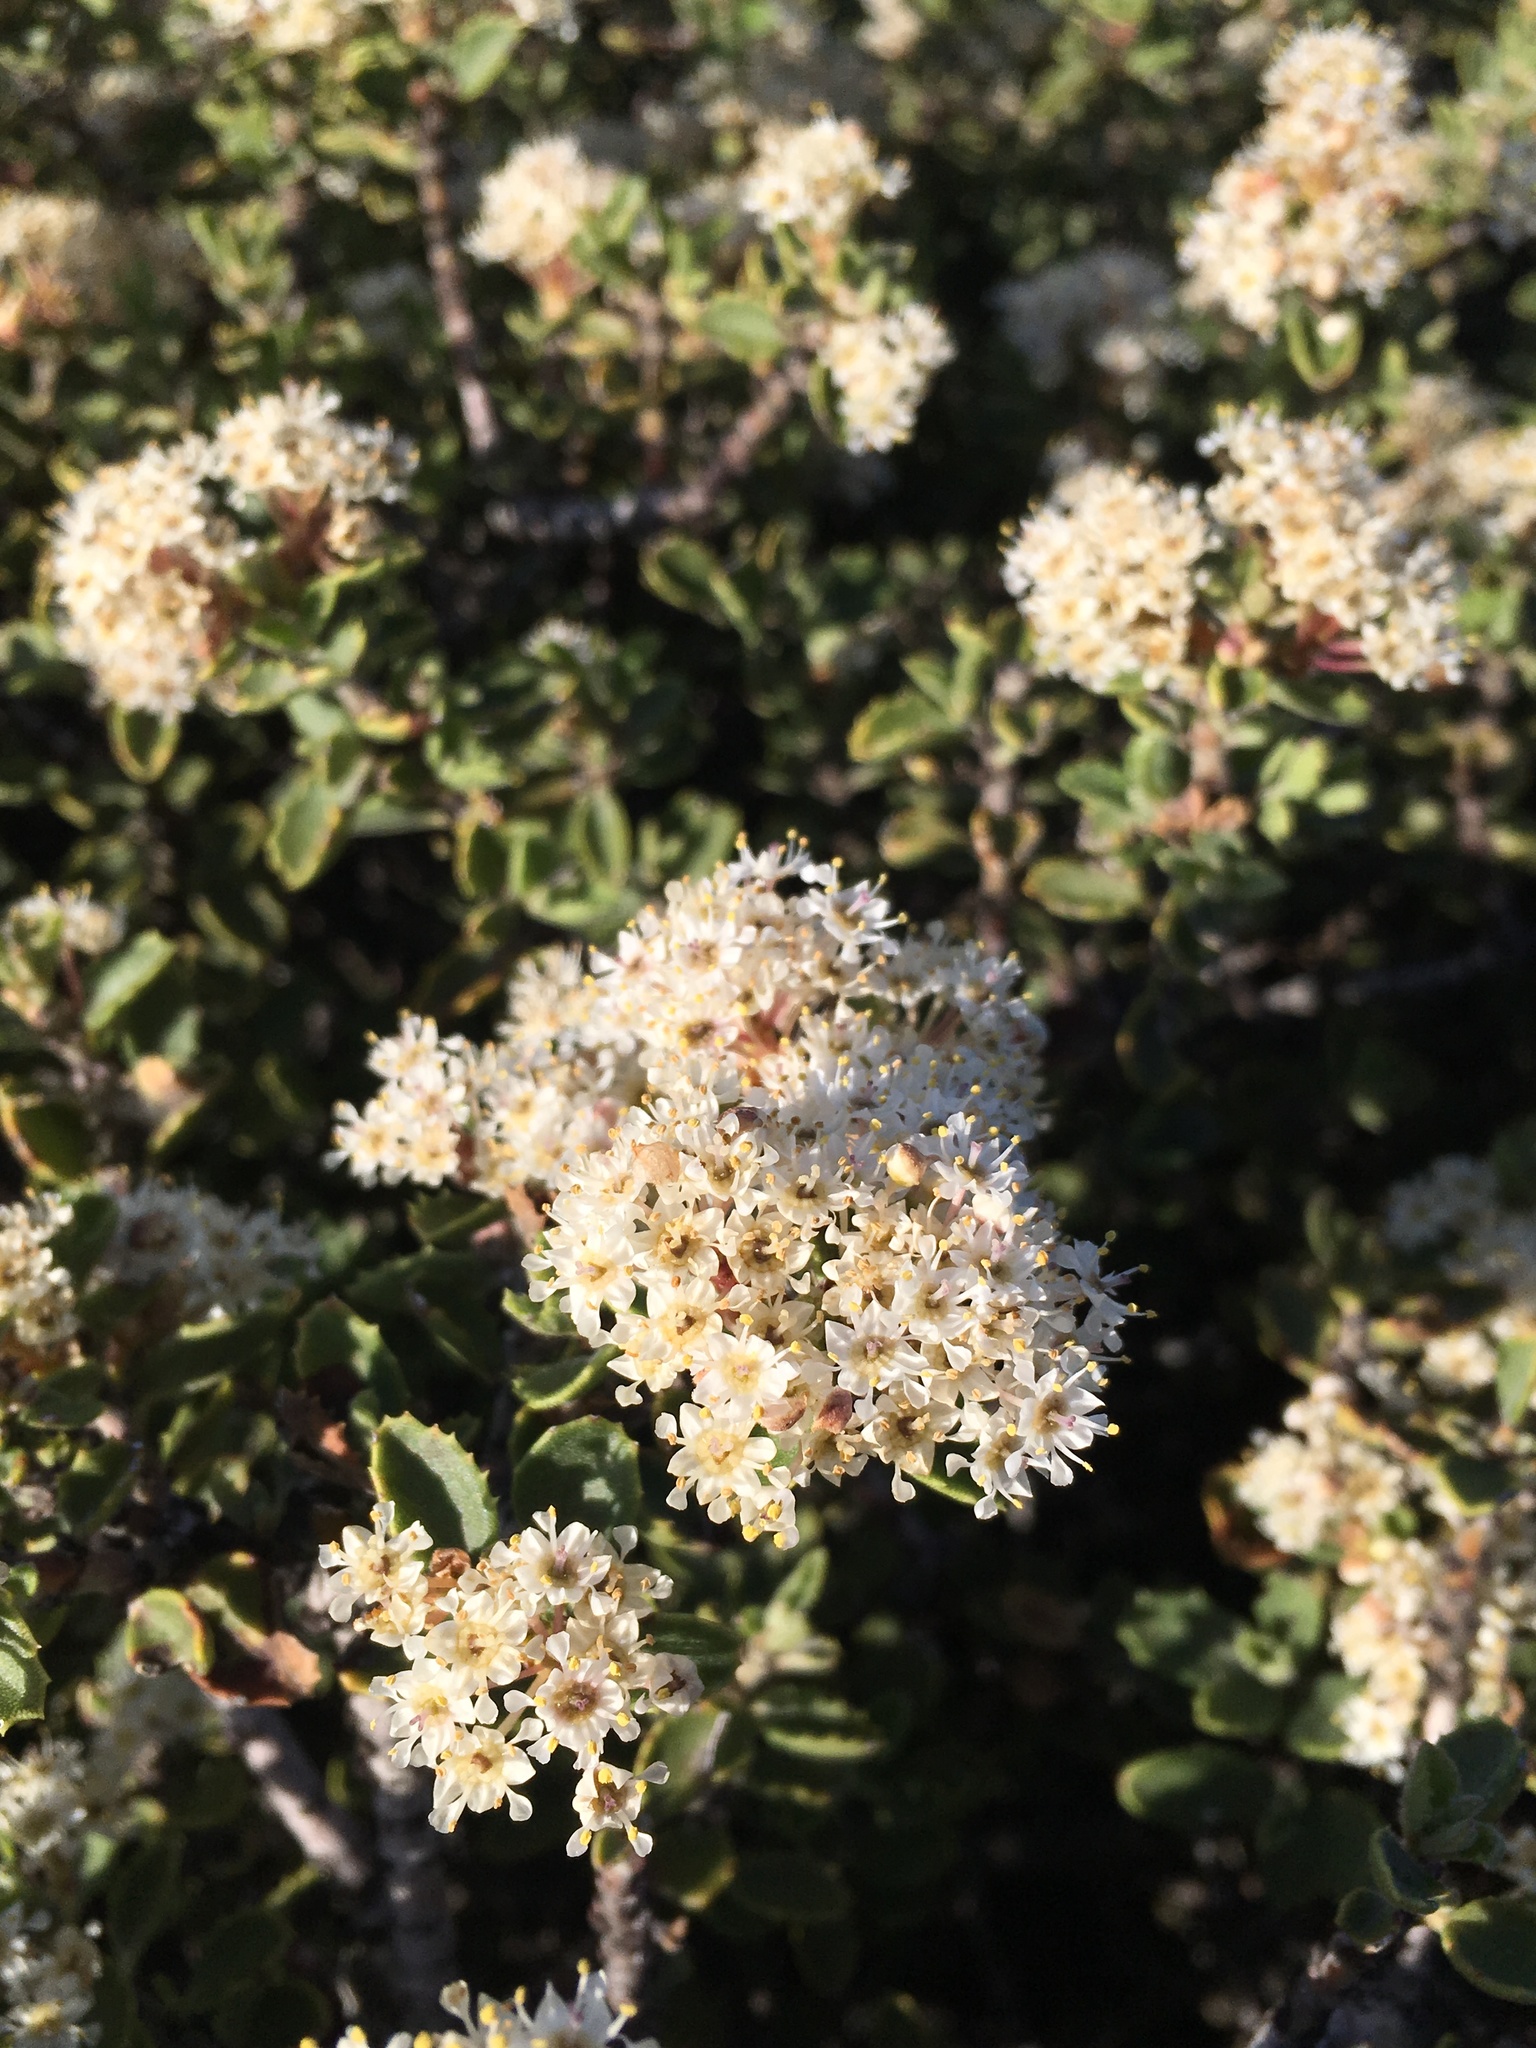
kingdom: Plantae
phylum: Tracheophyta
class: Magnoliopsida
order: Rosales
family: Rhamnaceae
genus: Ceanothus
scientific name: Ceanothus perplexans
